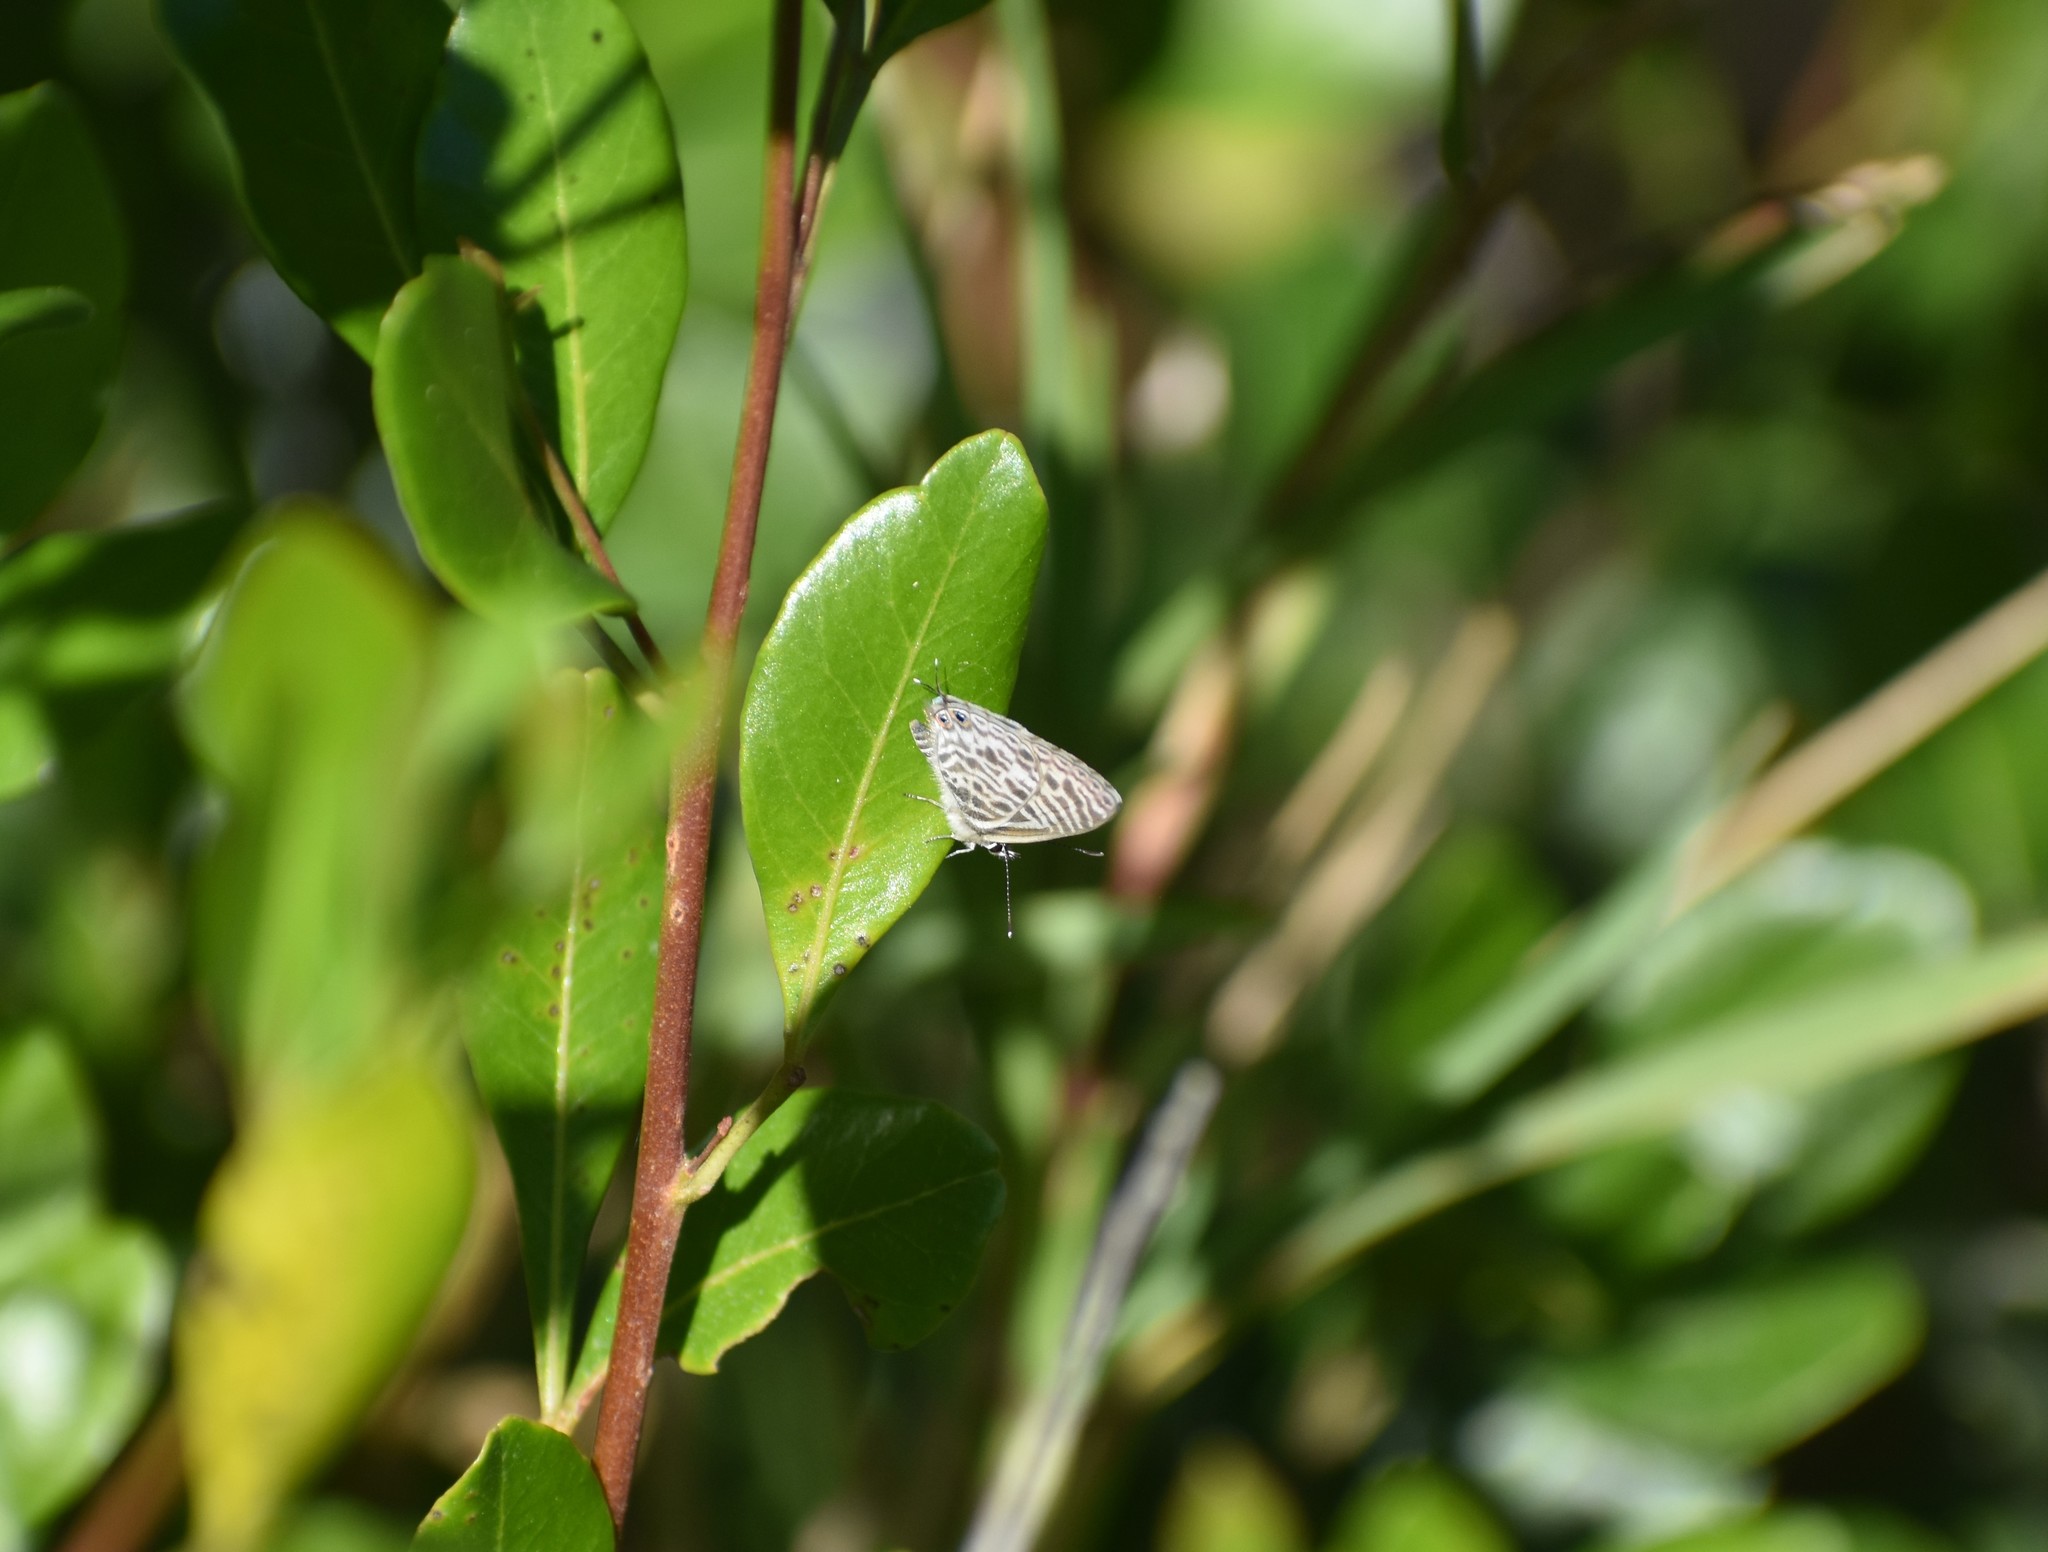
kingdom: Animalia
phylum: Arthropoda
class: Insecta
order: Lepidoptera
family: Lycaenidae
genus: Leptotes
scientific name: Leptotes
